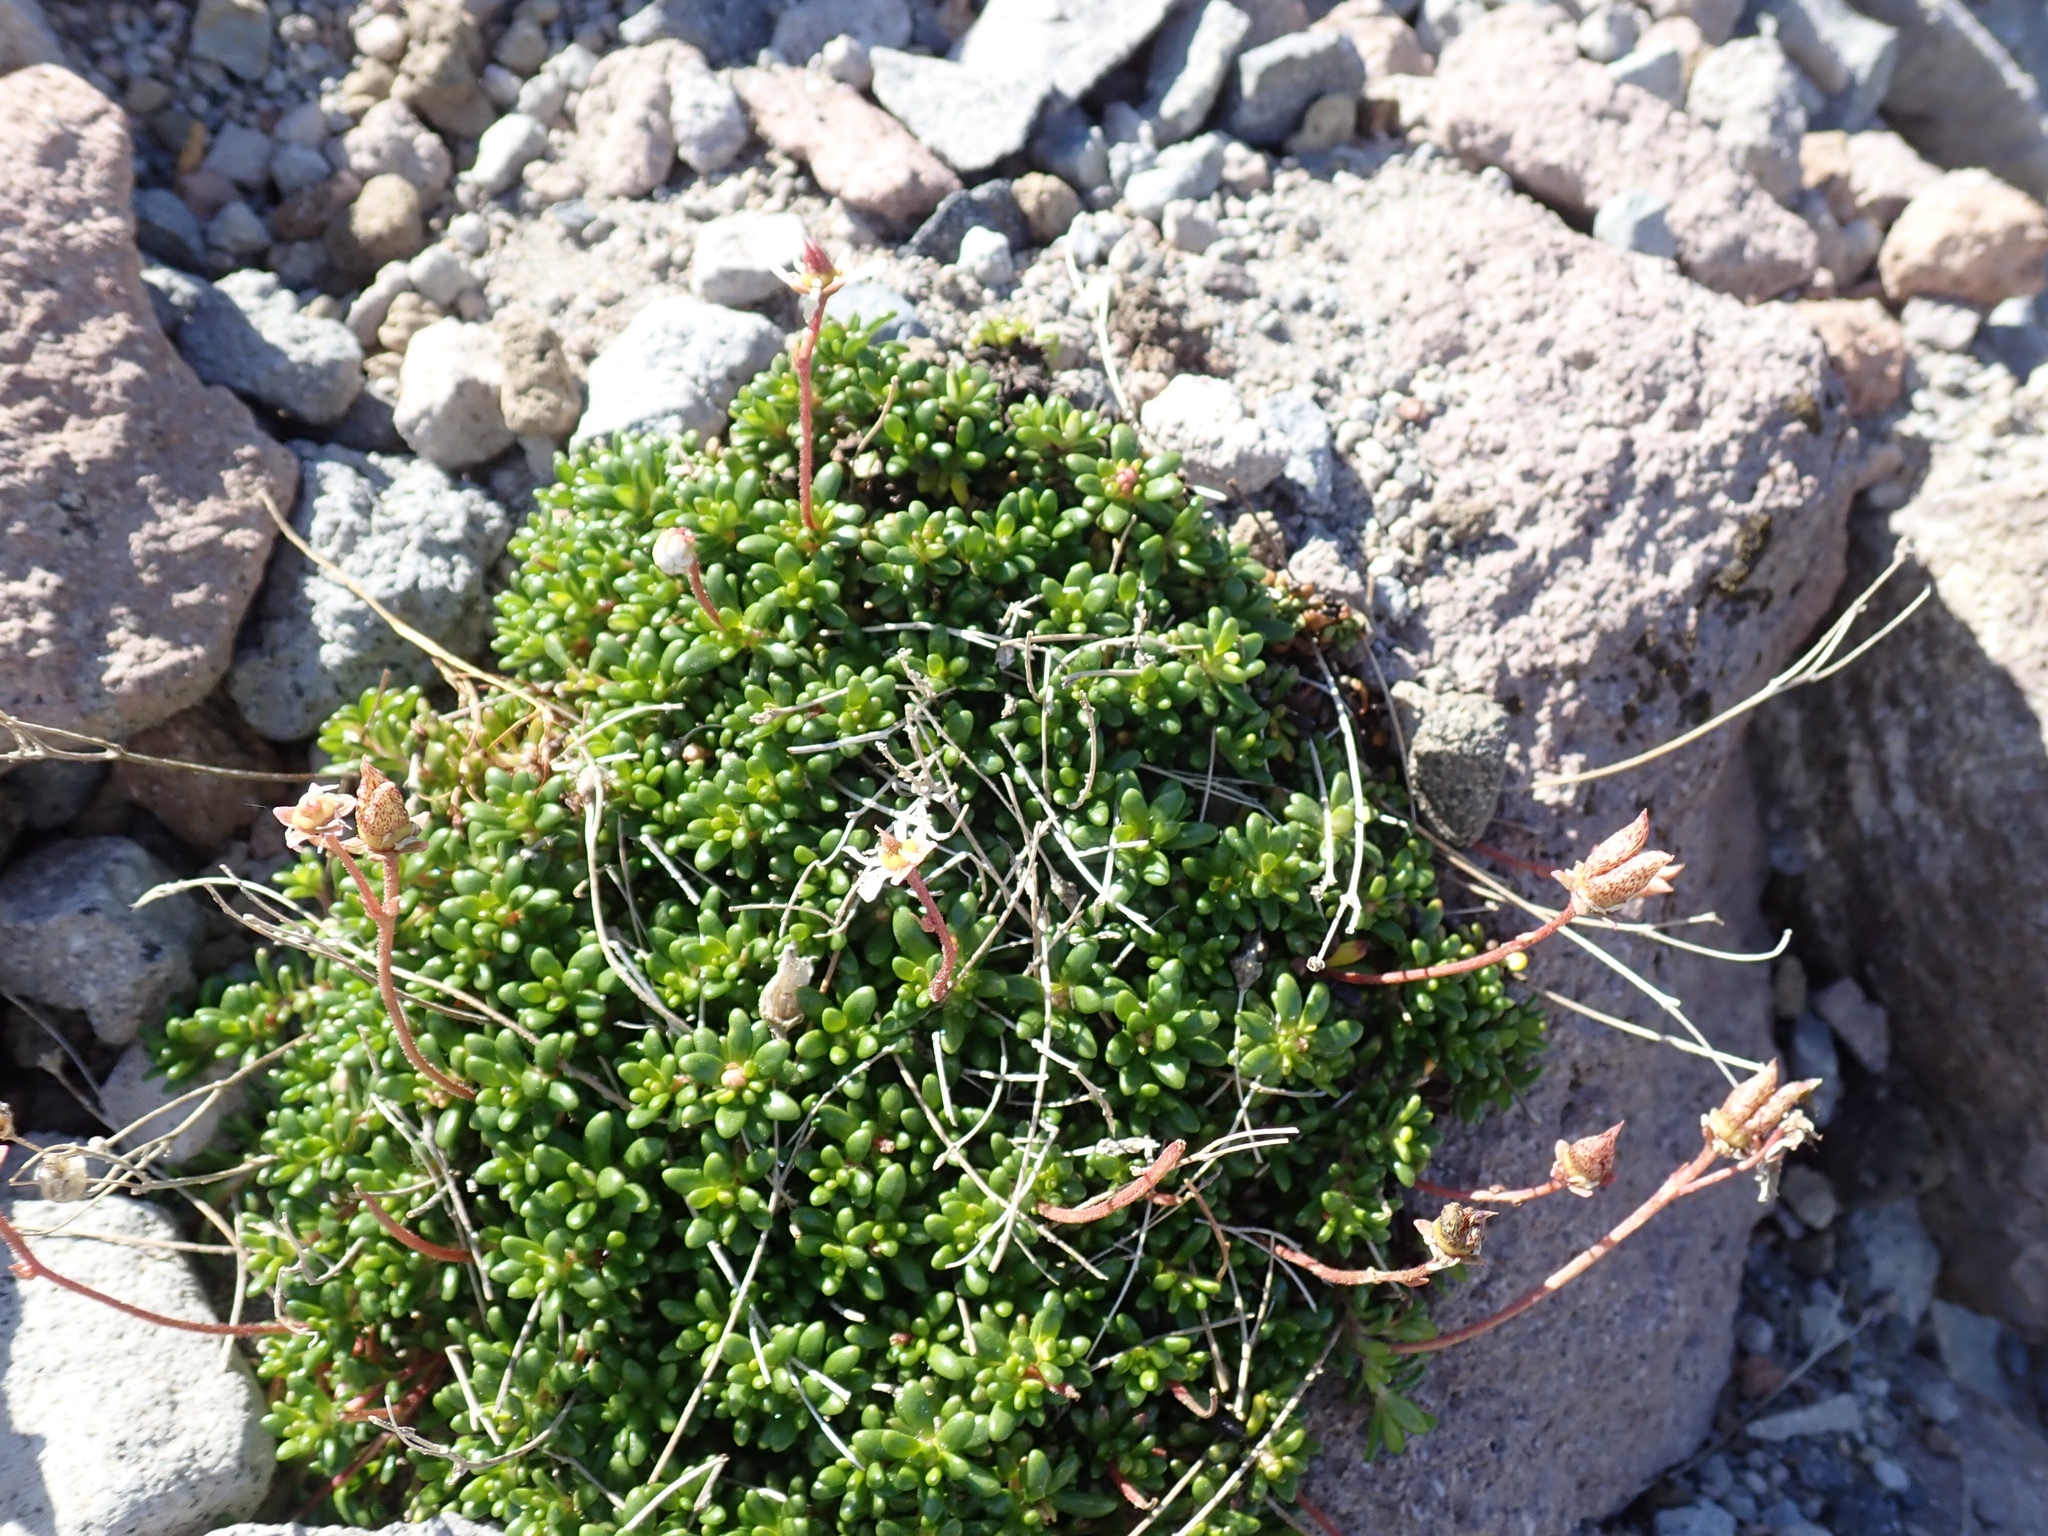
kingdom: Plantae
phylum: Tracheophyta
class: Magnoliopsida
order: Saxifragales
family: Saxifragaceae
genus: Micranthes
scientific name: Micranthes tolmiei
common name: Tolmie's saxifrage
